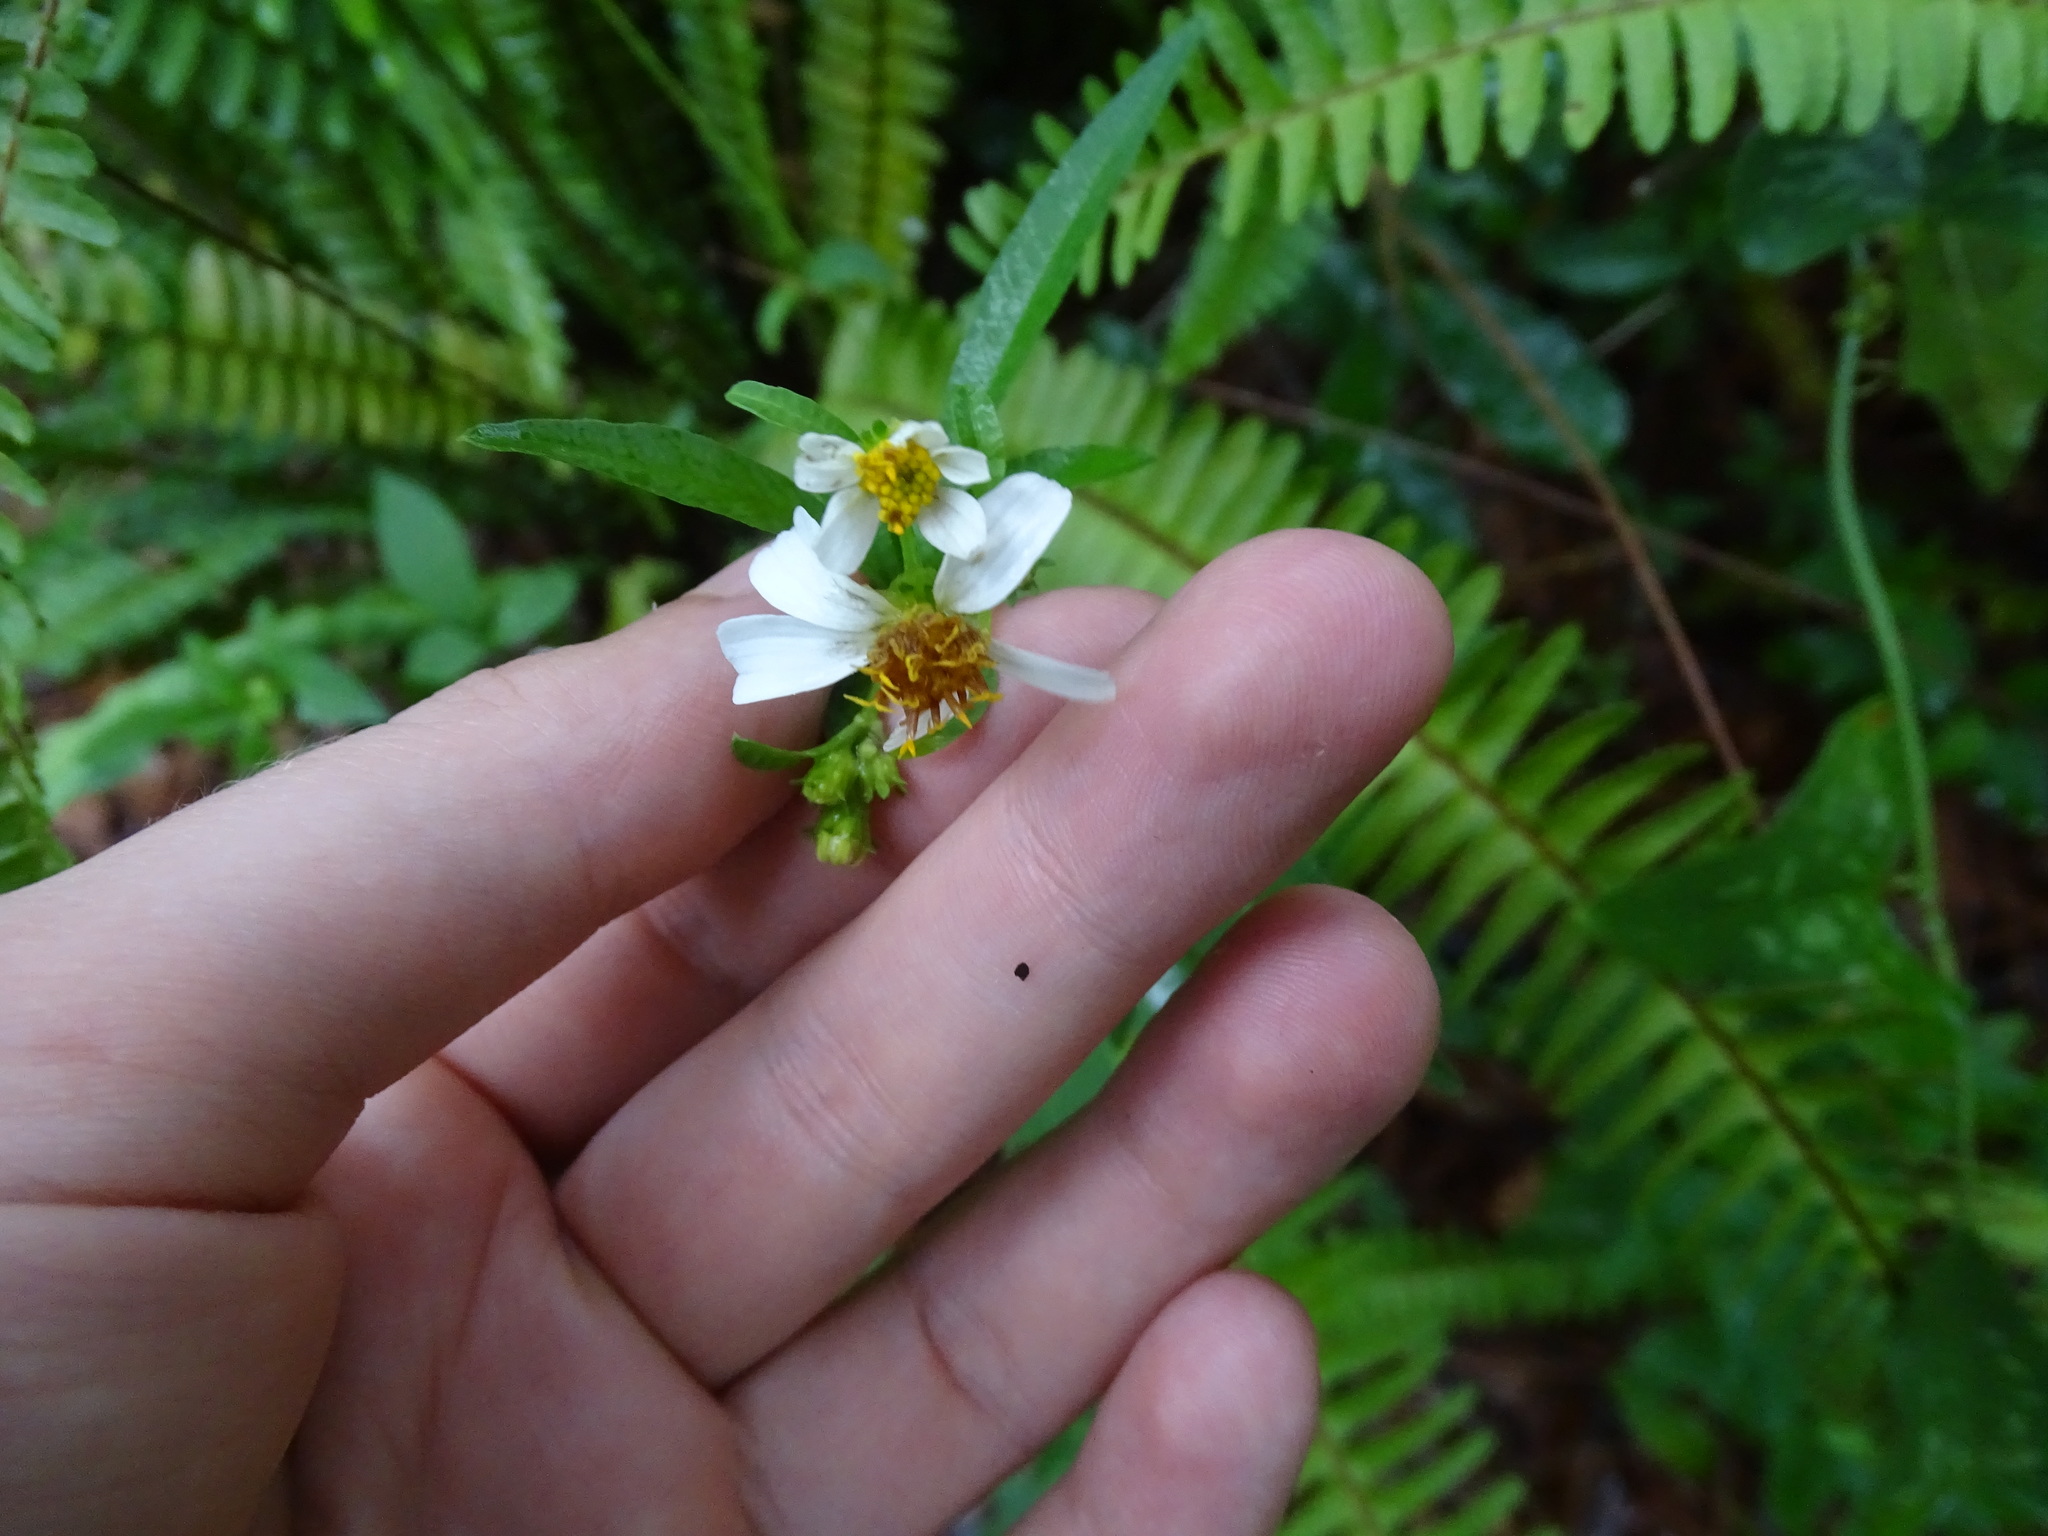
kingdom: Plantae
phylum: Tracheophyta
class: Magnoliopsida
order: Asterales
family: Asteraceae
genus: Bidens
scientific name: Bidens alba
